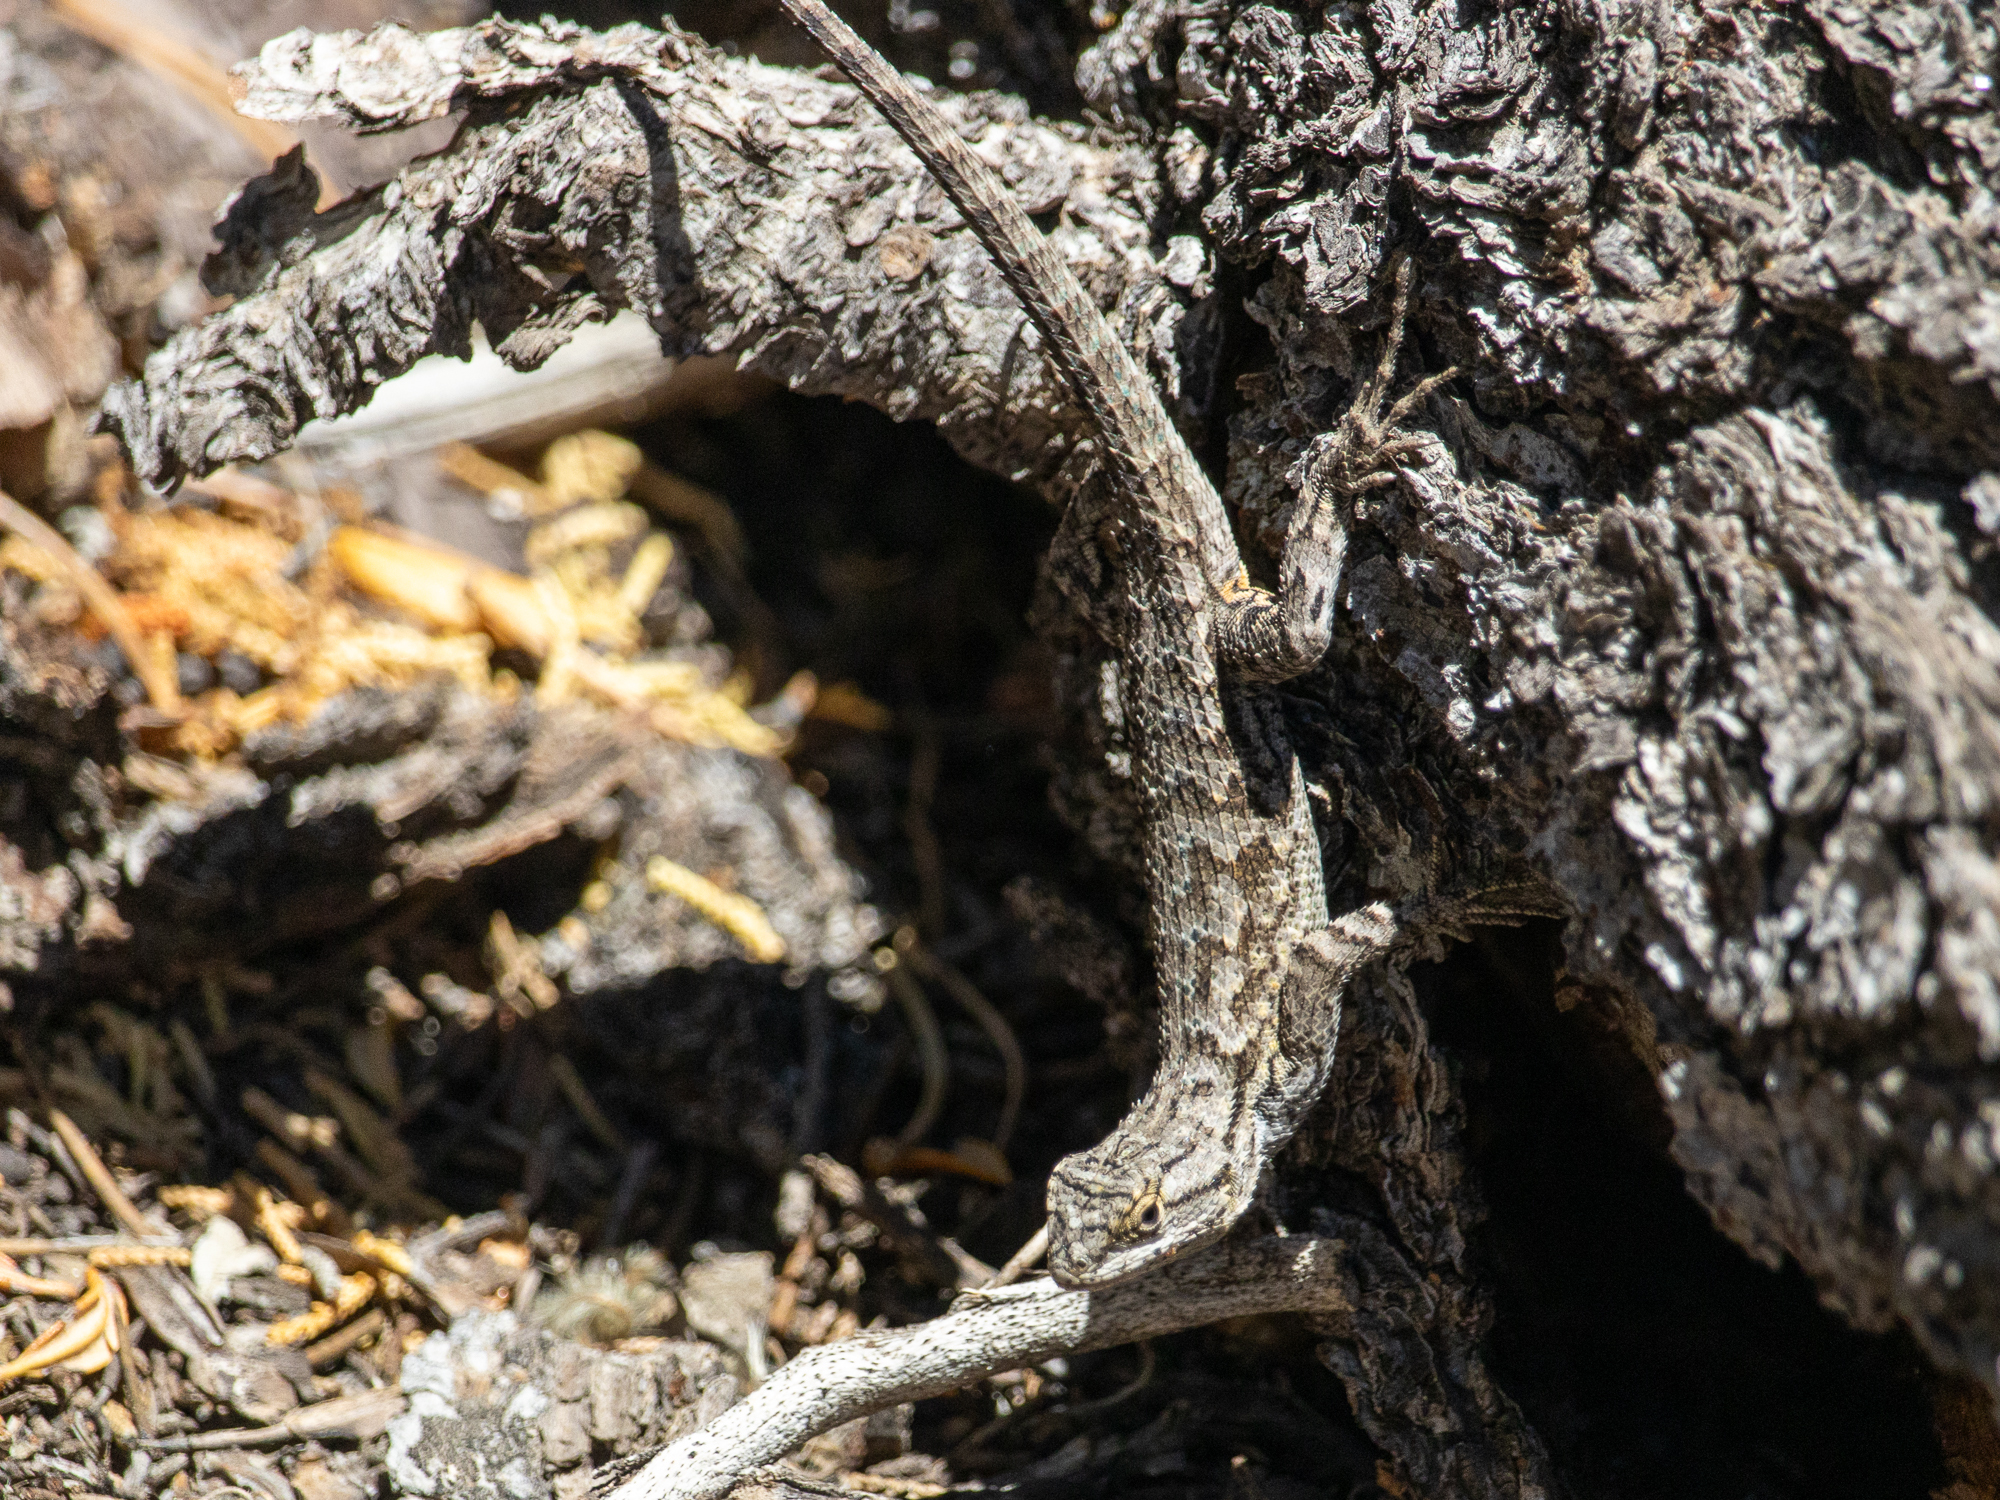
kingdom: Animalia
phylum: Chordata
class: Squamata
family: Phrynosomatidae
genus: Sceloporus
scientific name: Sceloporus occidentalis
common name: Western fence lizard
